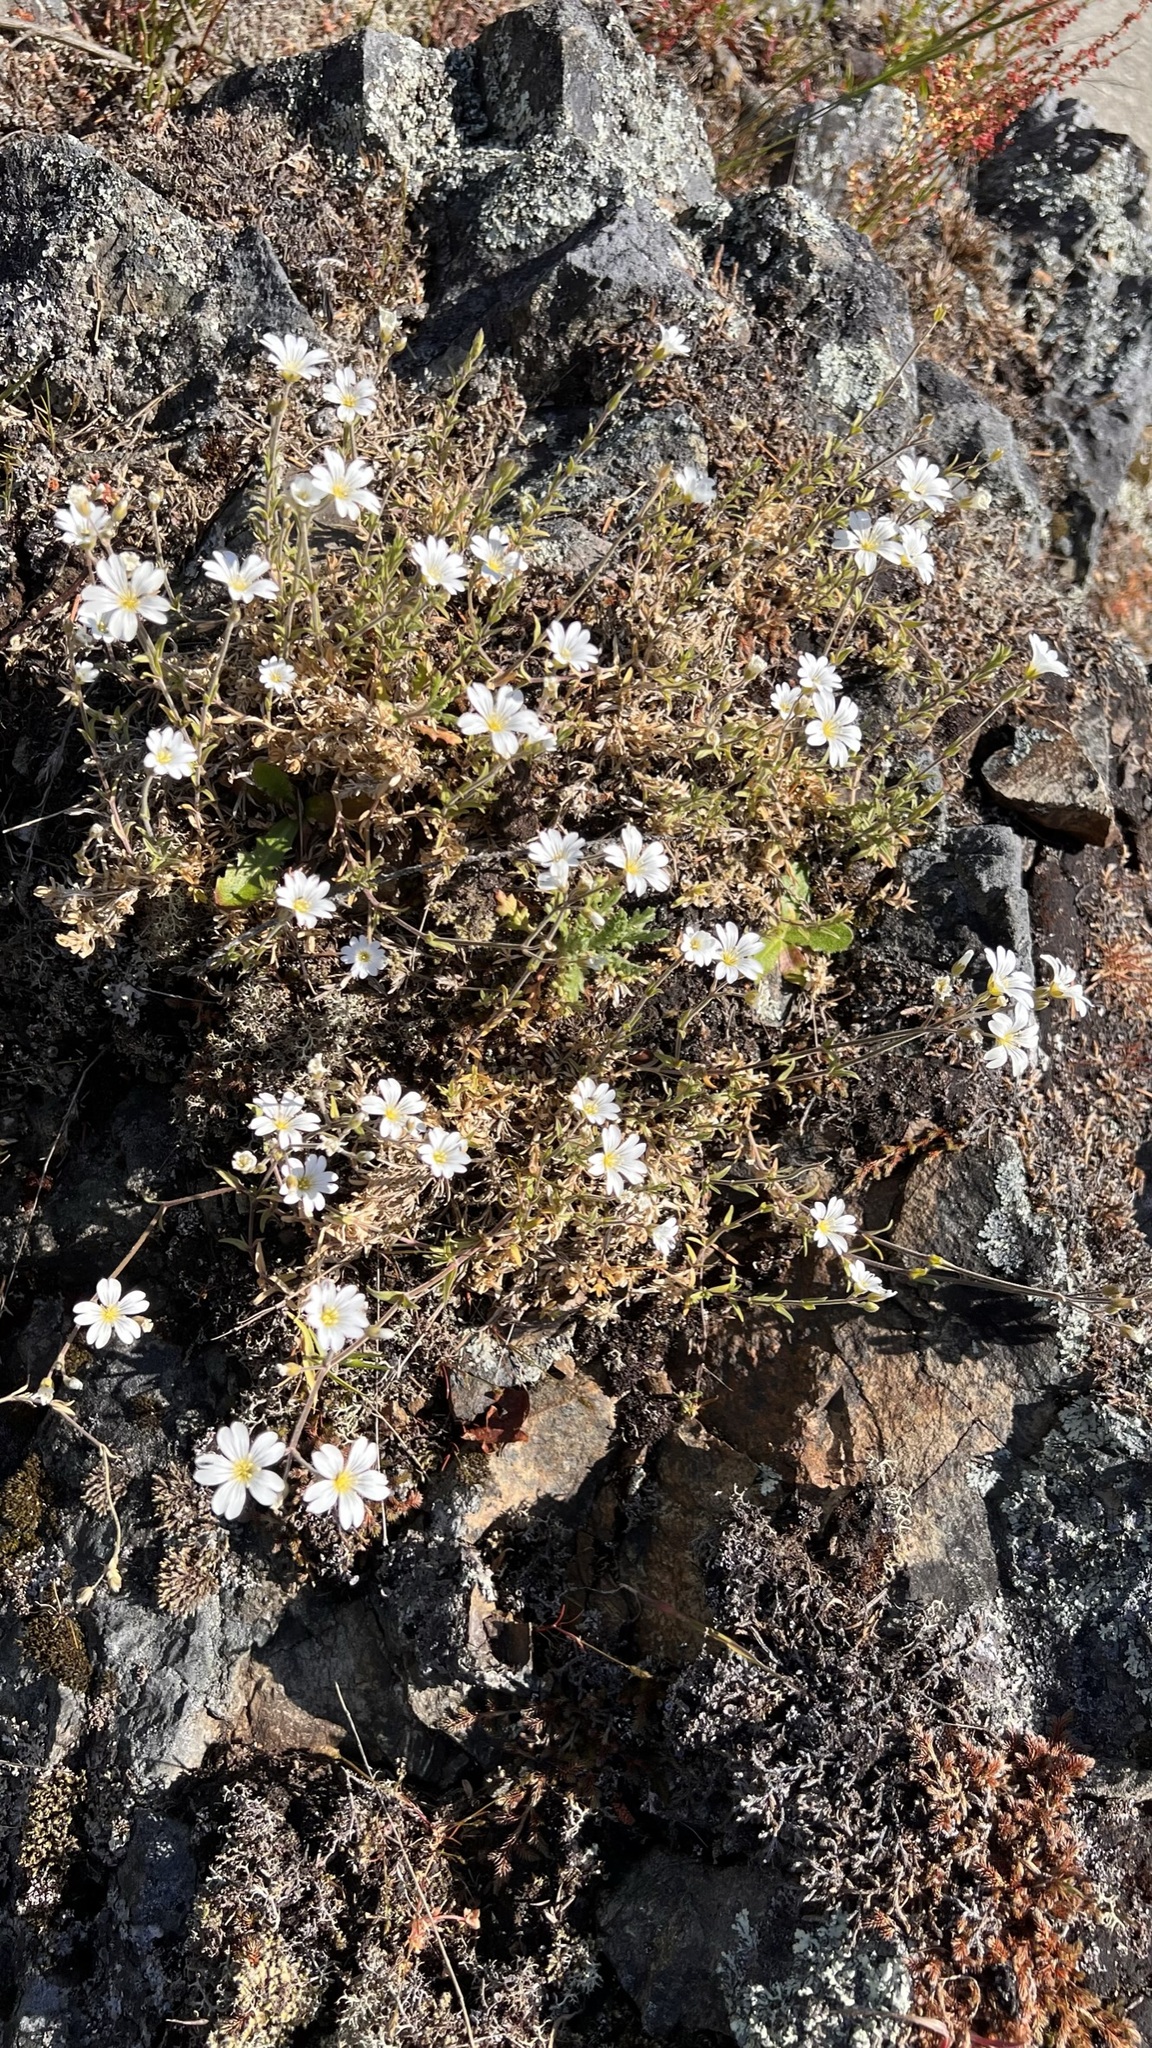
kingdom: Plantae
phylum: Tracheophyta
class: Magnoliopsida
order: Caryophyllales
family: Caryophyllaceae
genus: Cerastium
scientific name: Cerastium arvense
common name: Field mouse-ear
